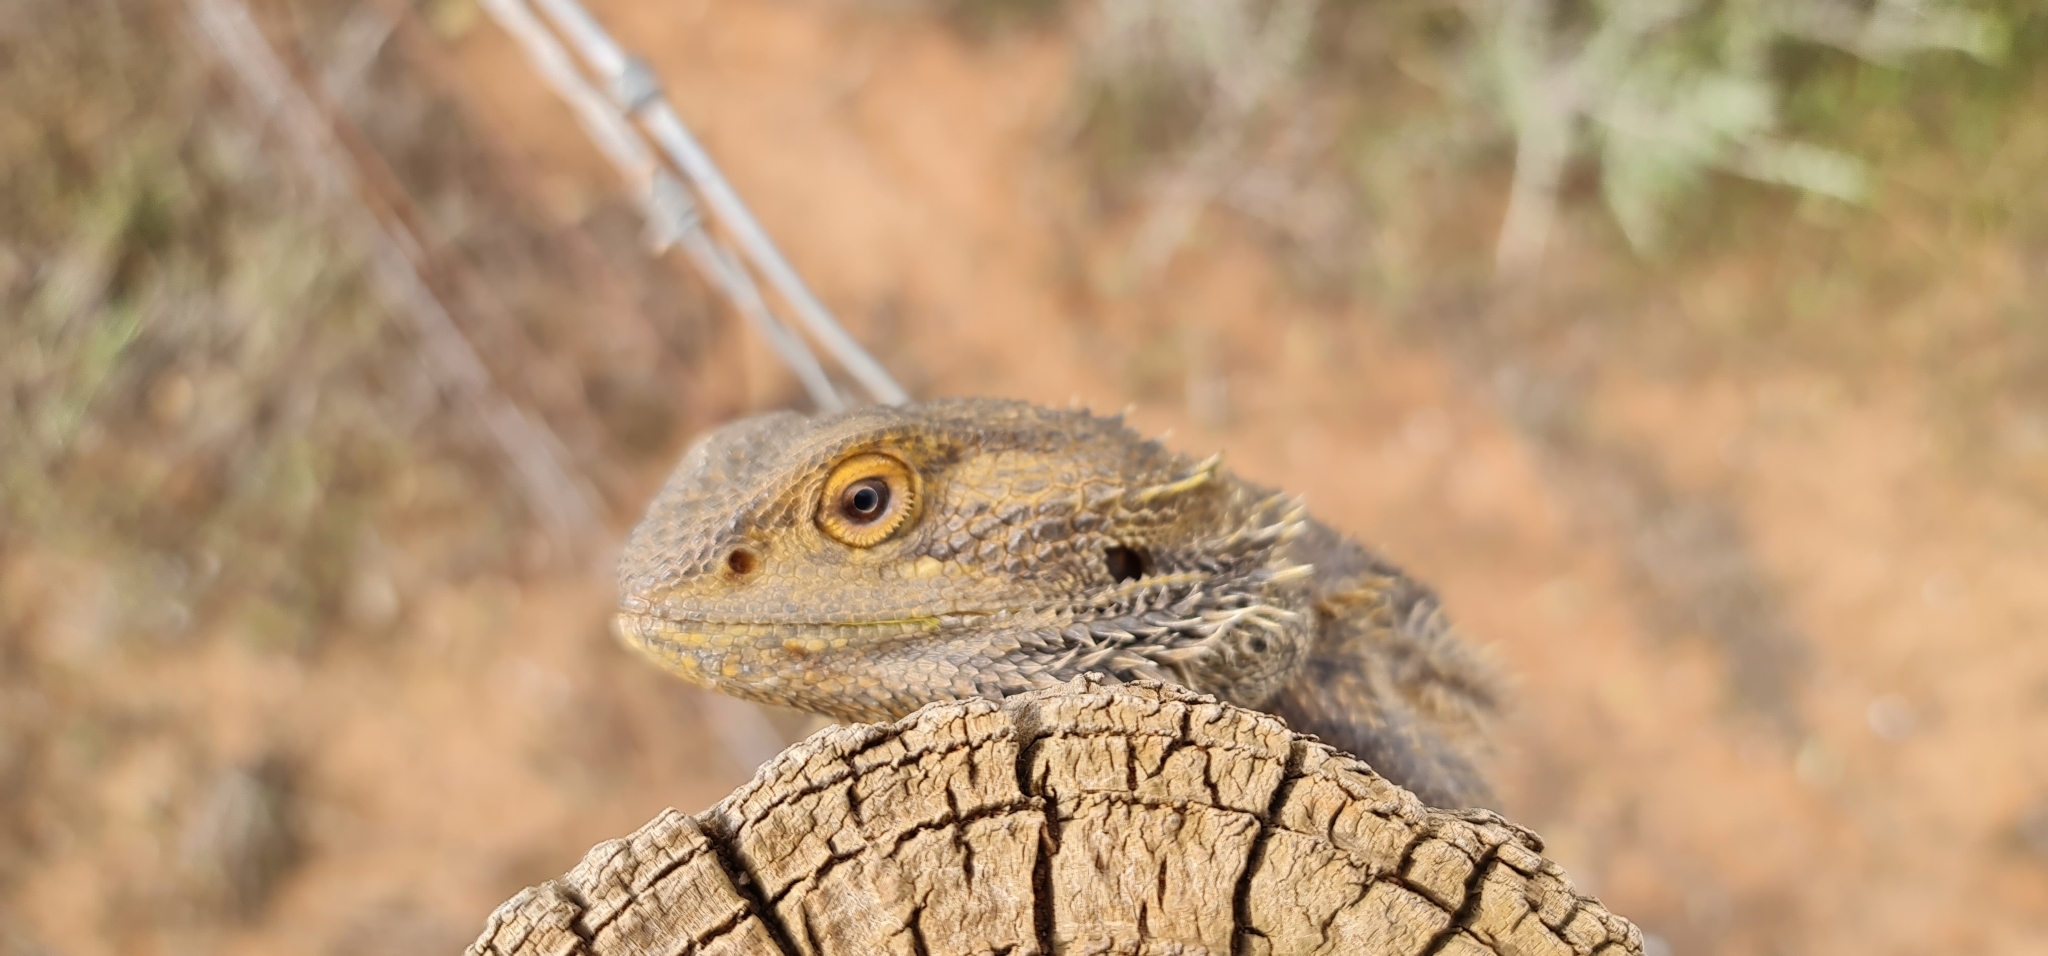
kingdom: Animalia
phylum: Chordata
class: Squamata
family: Agamidae
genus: Pogona
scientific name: Pogona vitticeps
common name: Central bearded dragon
